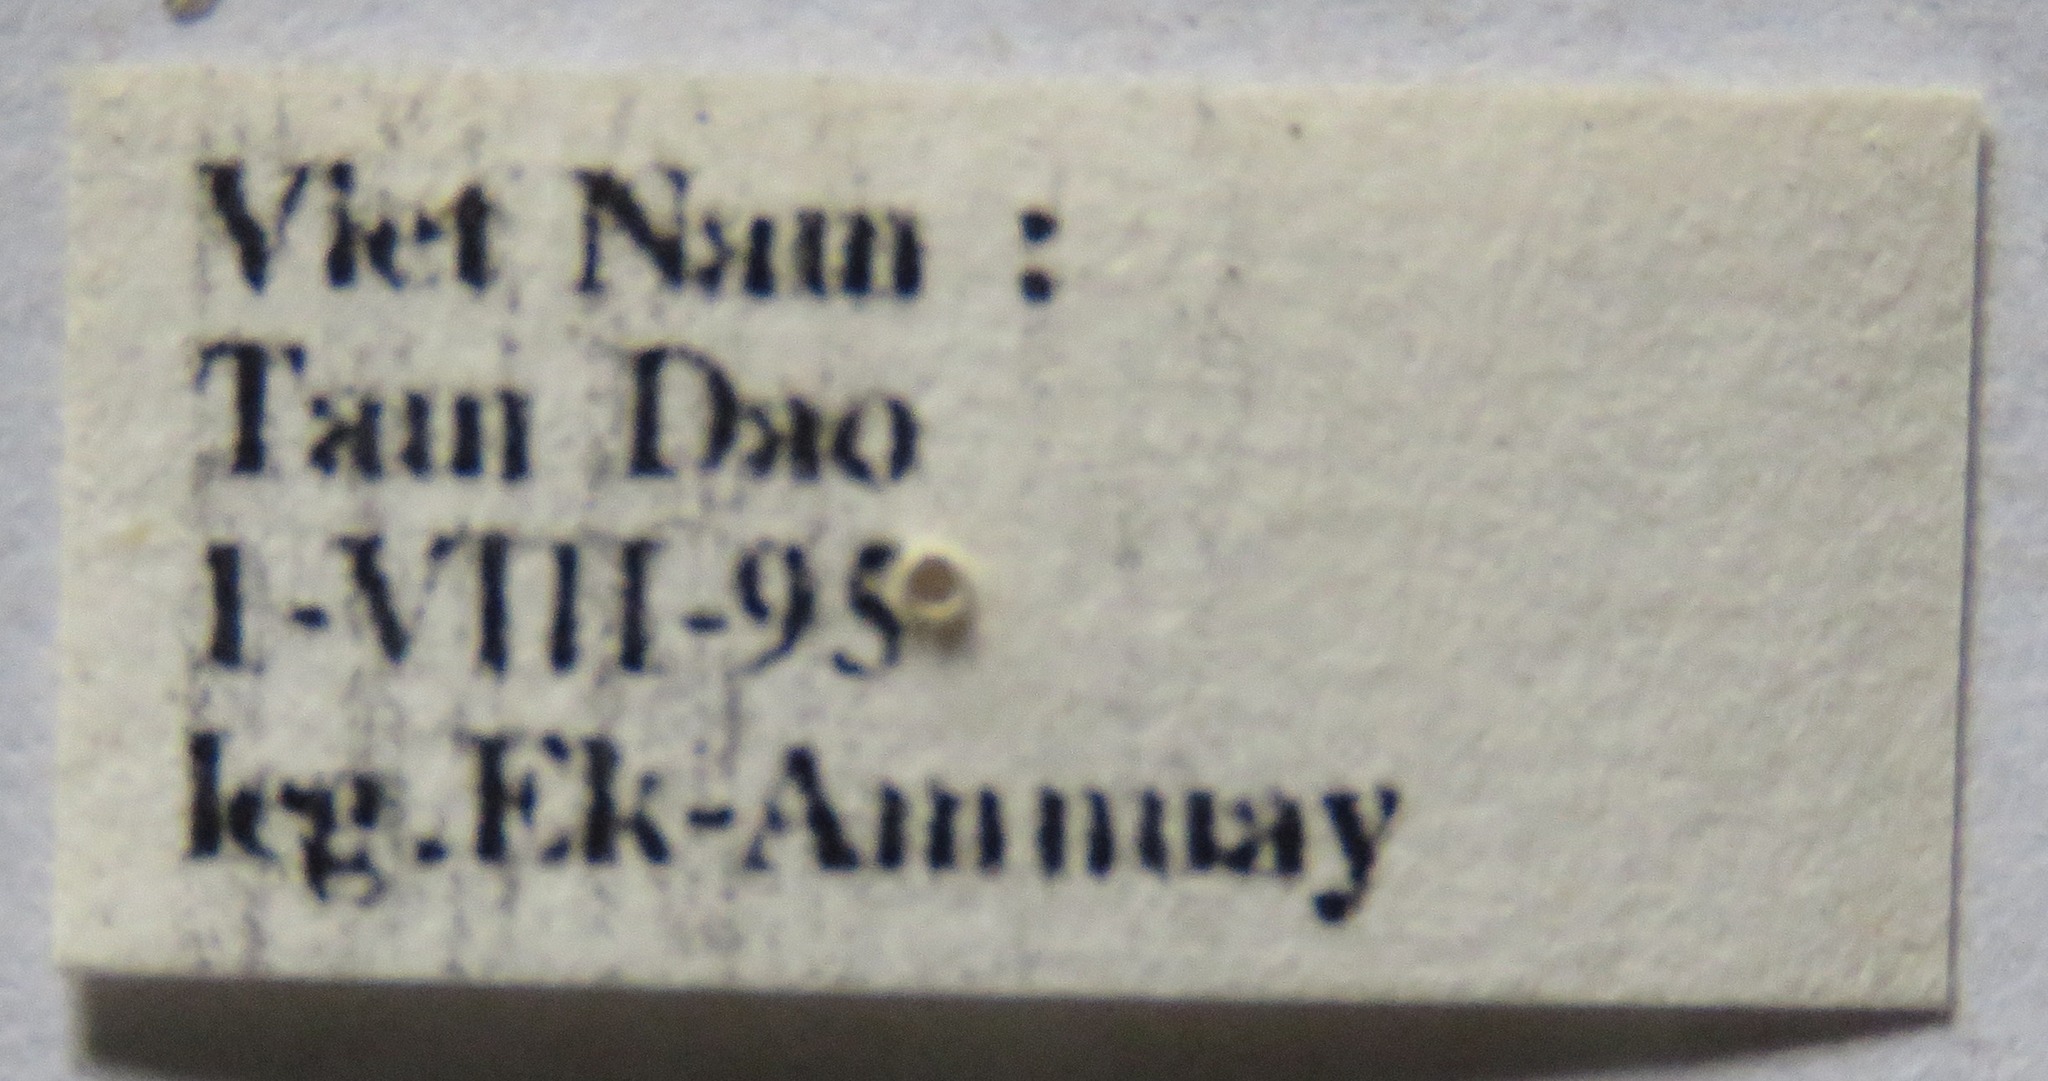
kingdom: Animalia
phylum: Arthropoda
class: Insecta
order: Coleoptera
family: Lucanidae
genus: Prosopocoilus
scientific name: Prosopocoilus doris
